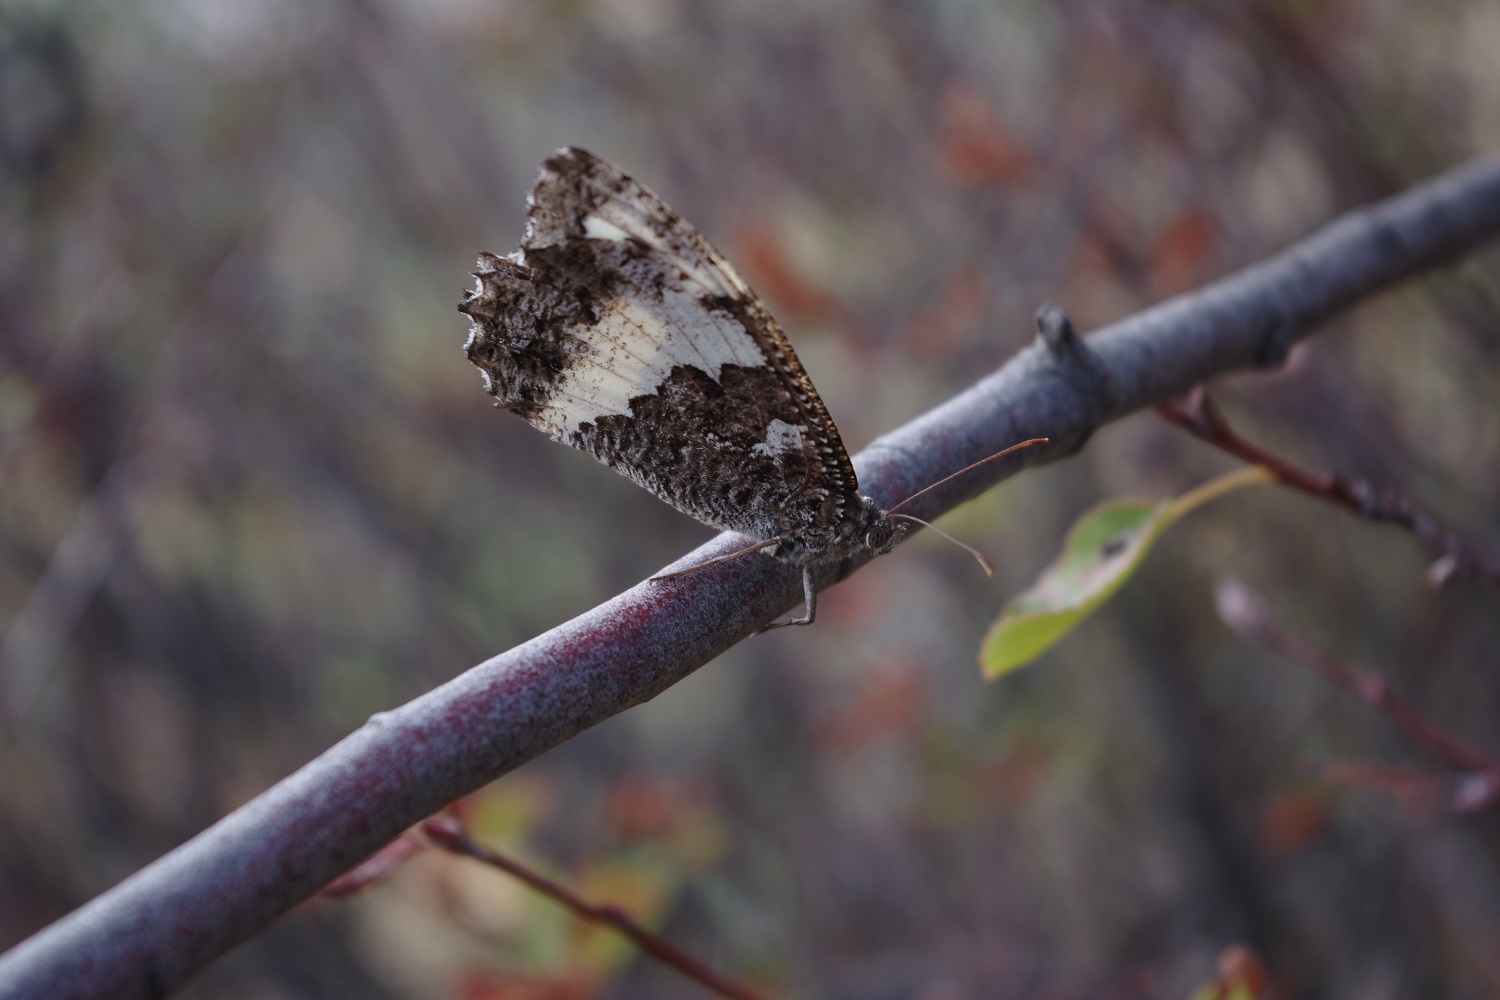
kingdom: Animalia
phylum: Arthropoda
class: Insecta
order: Lepidoptera
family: Lycaenidae
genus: Loweia
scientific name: Loweia tityrus
